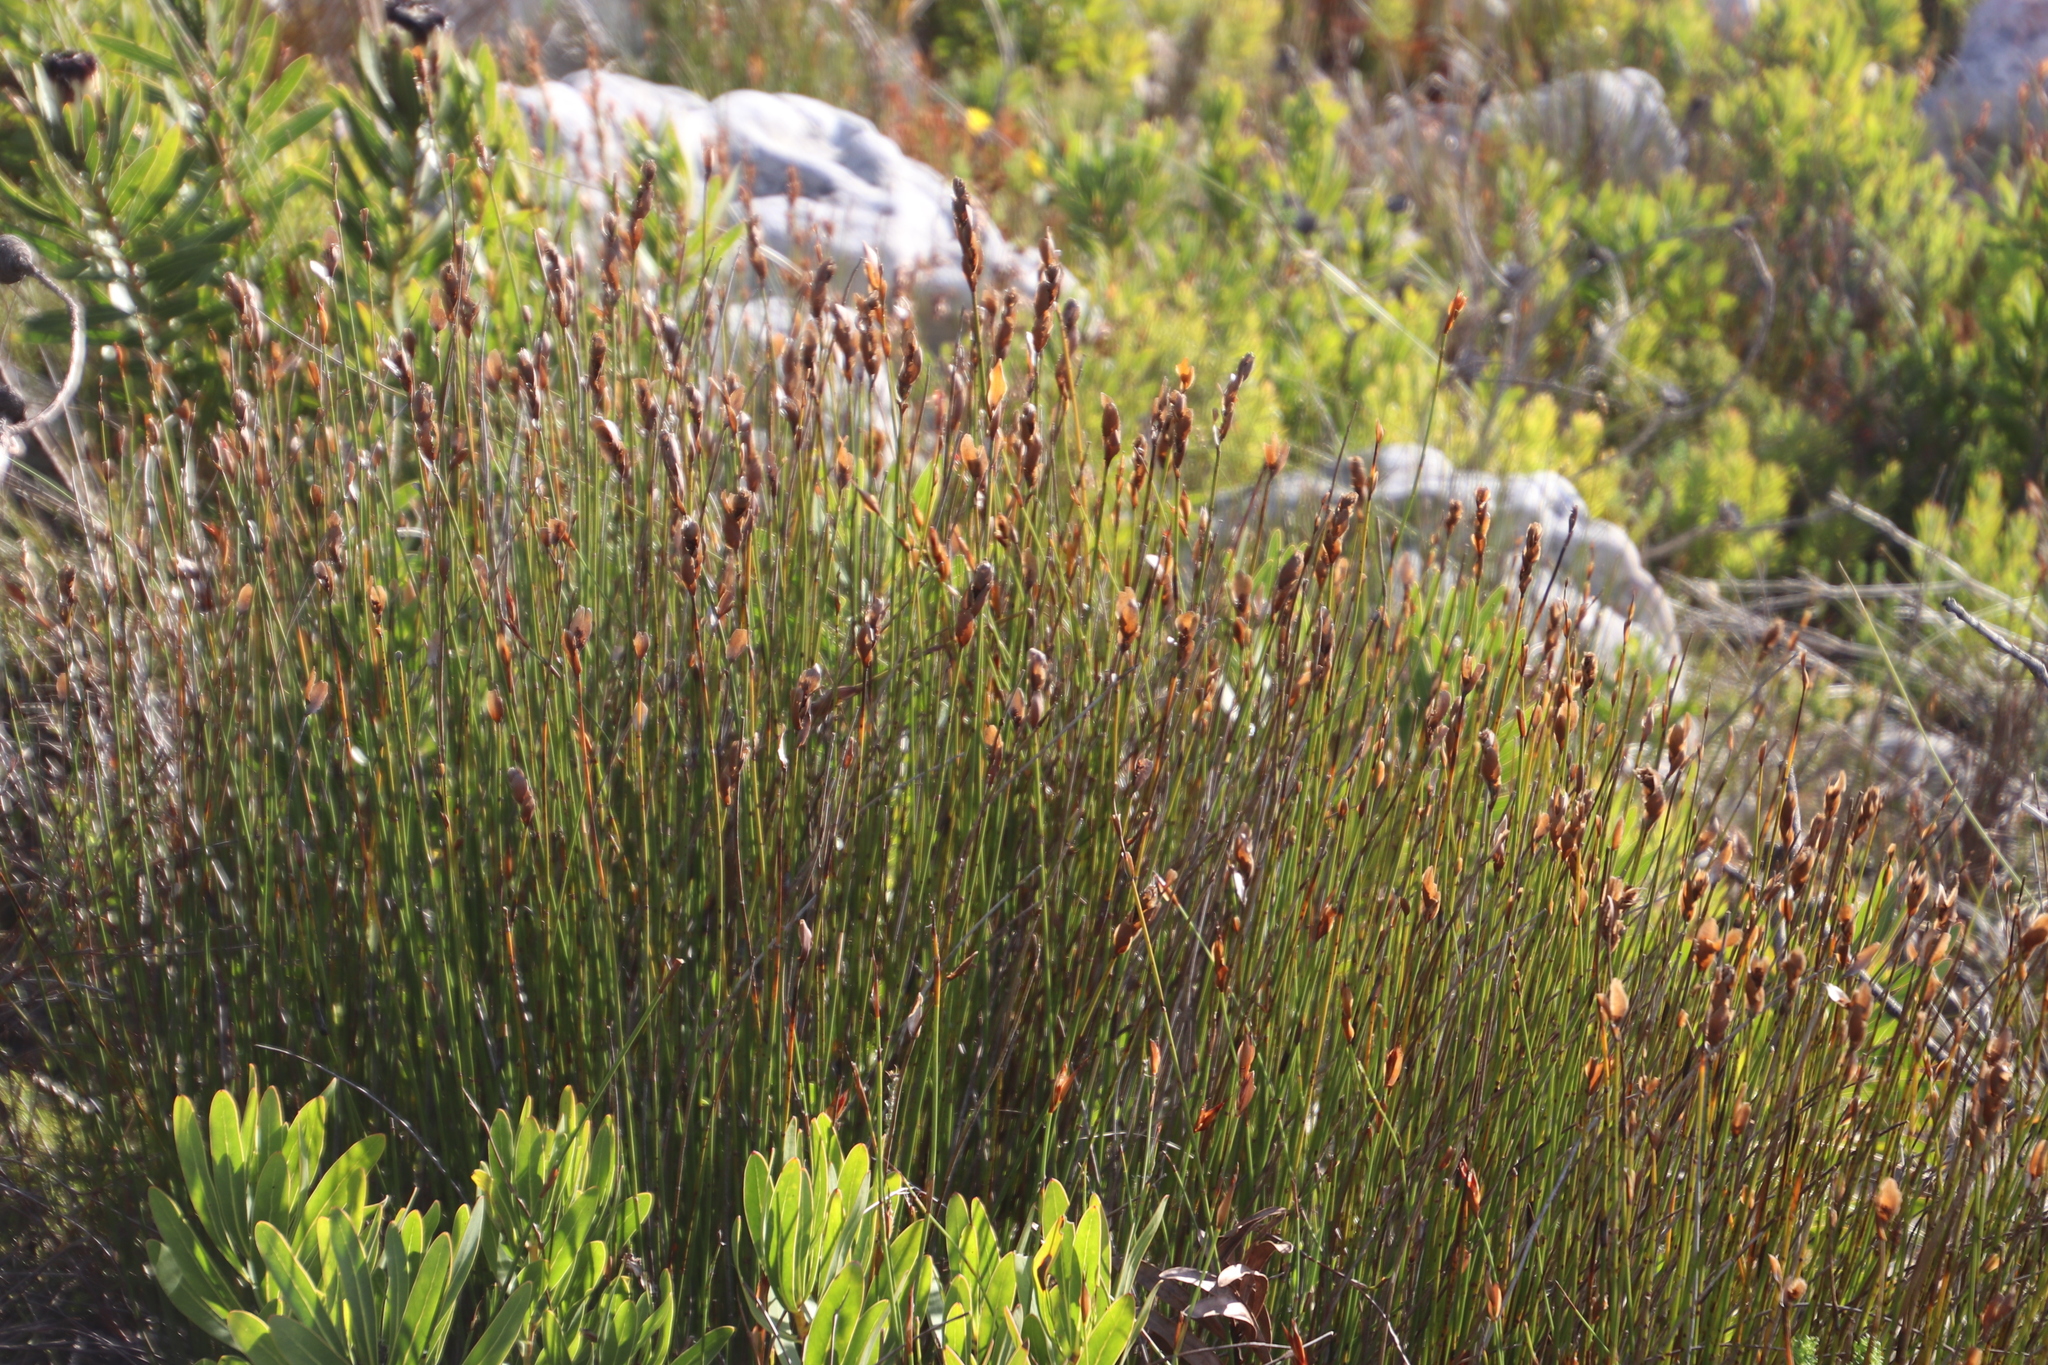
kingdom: Plantae
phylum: Tracheophyta
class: Liliopsida
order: Poales
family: Restionaceae
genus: Elegia
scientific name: Elegia racemosa
